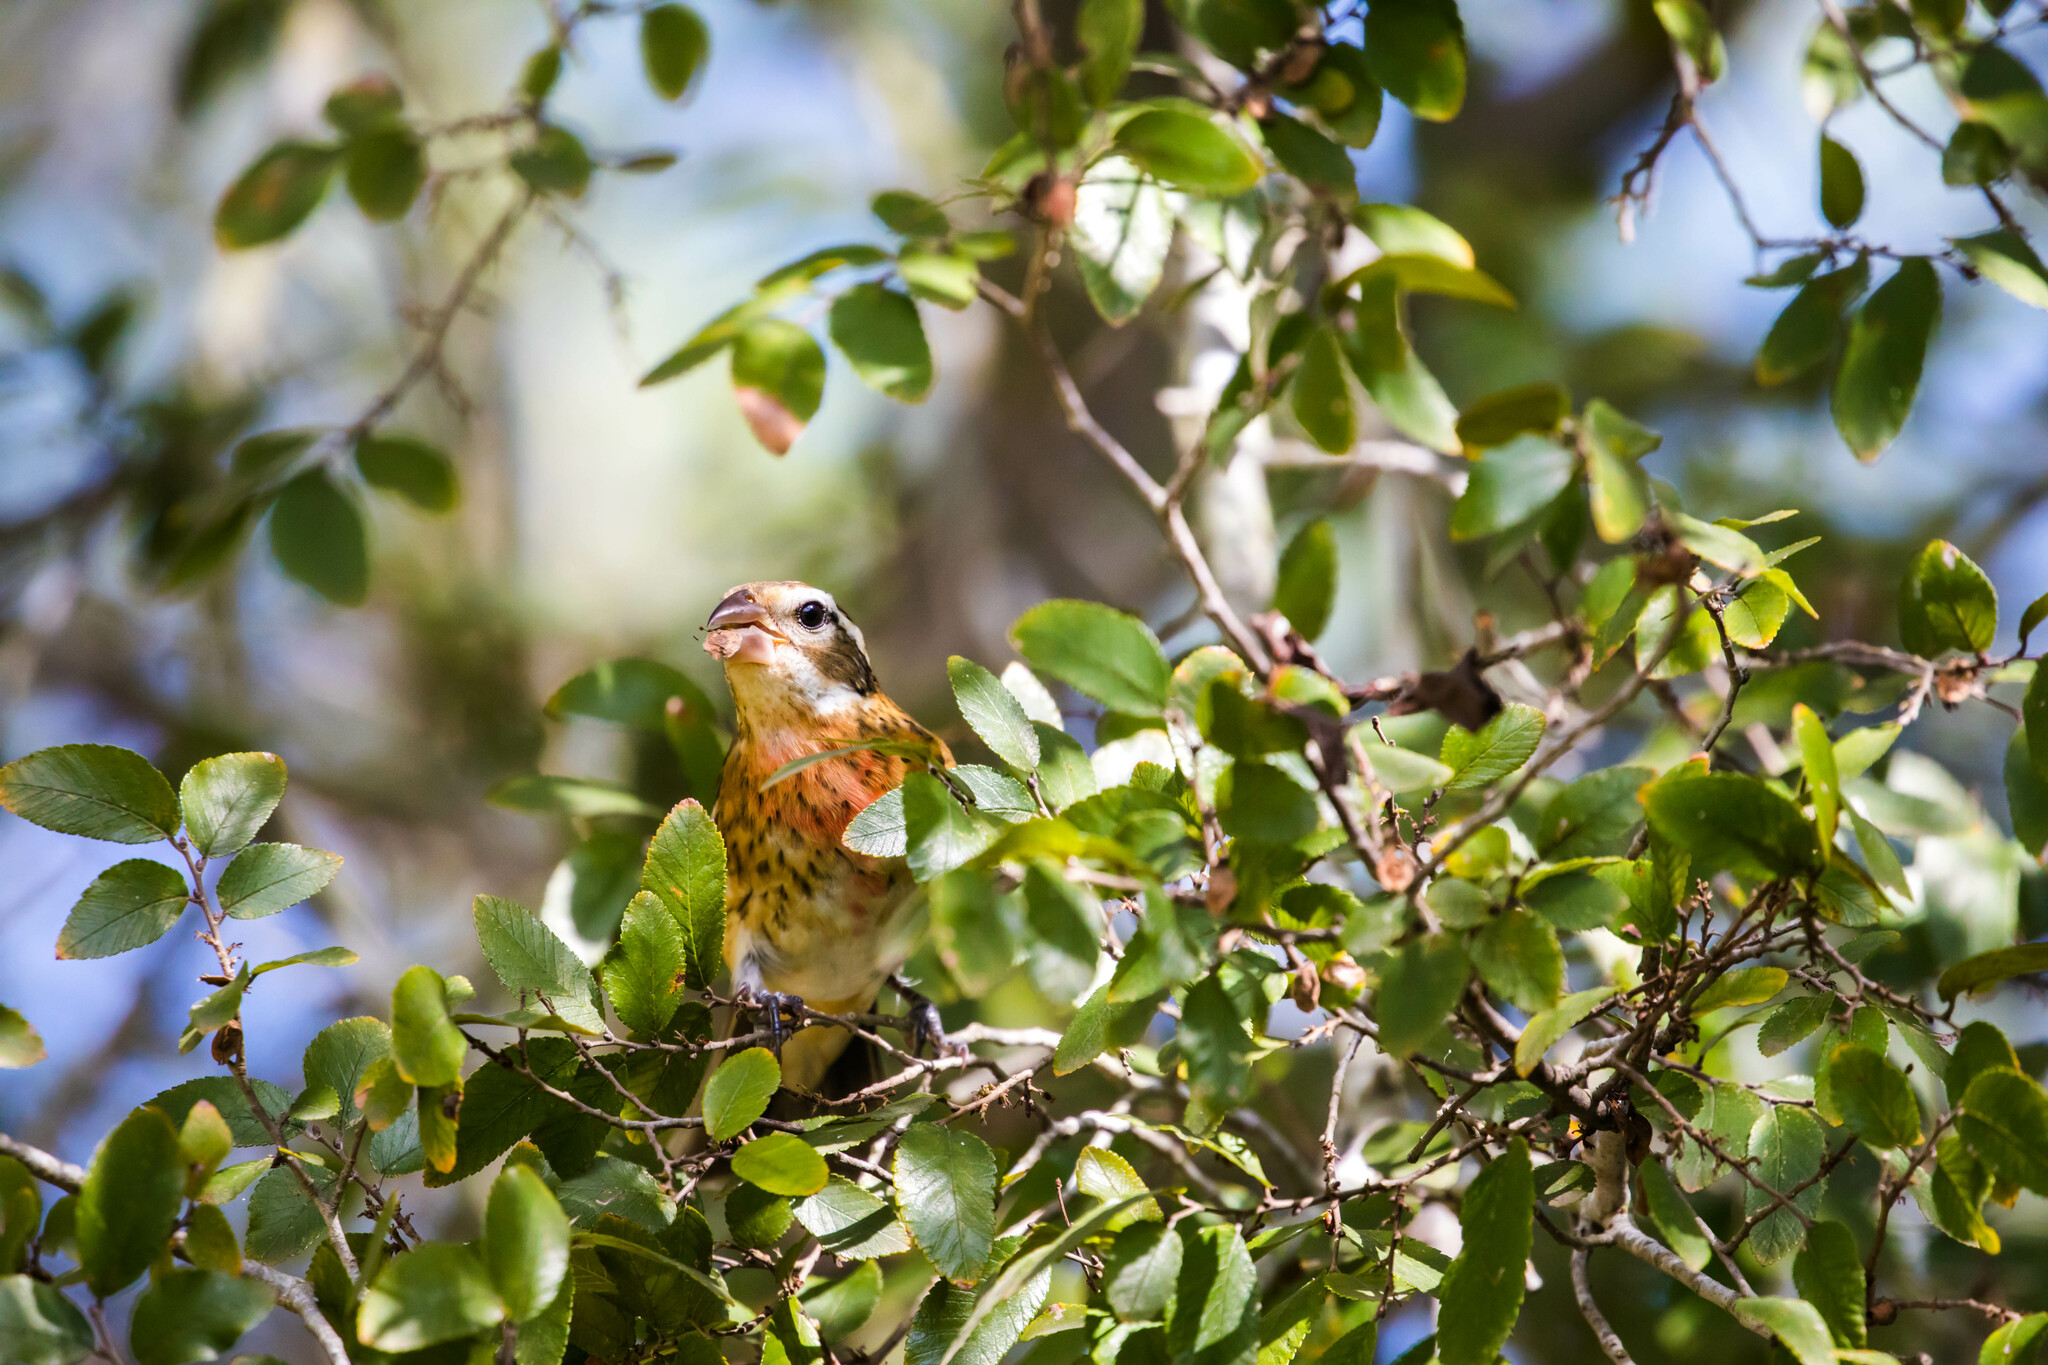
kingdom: Animalia
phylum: Chordata
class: Aves
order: Passeriformes
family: Cardinalidae
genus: Pheucticus
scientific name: Pheucticus ludovicianus
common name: Rose-breasted grosbeak
